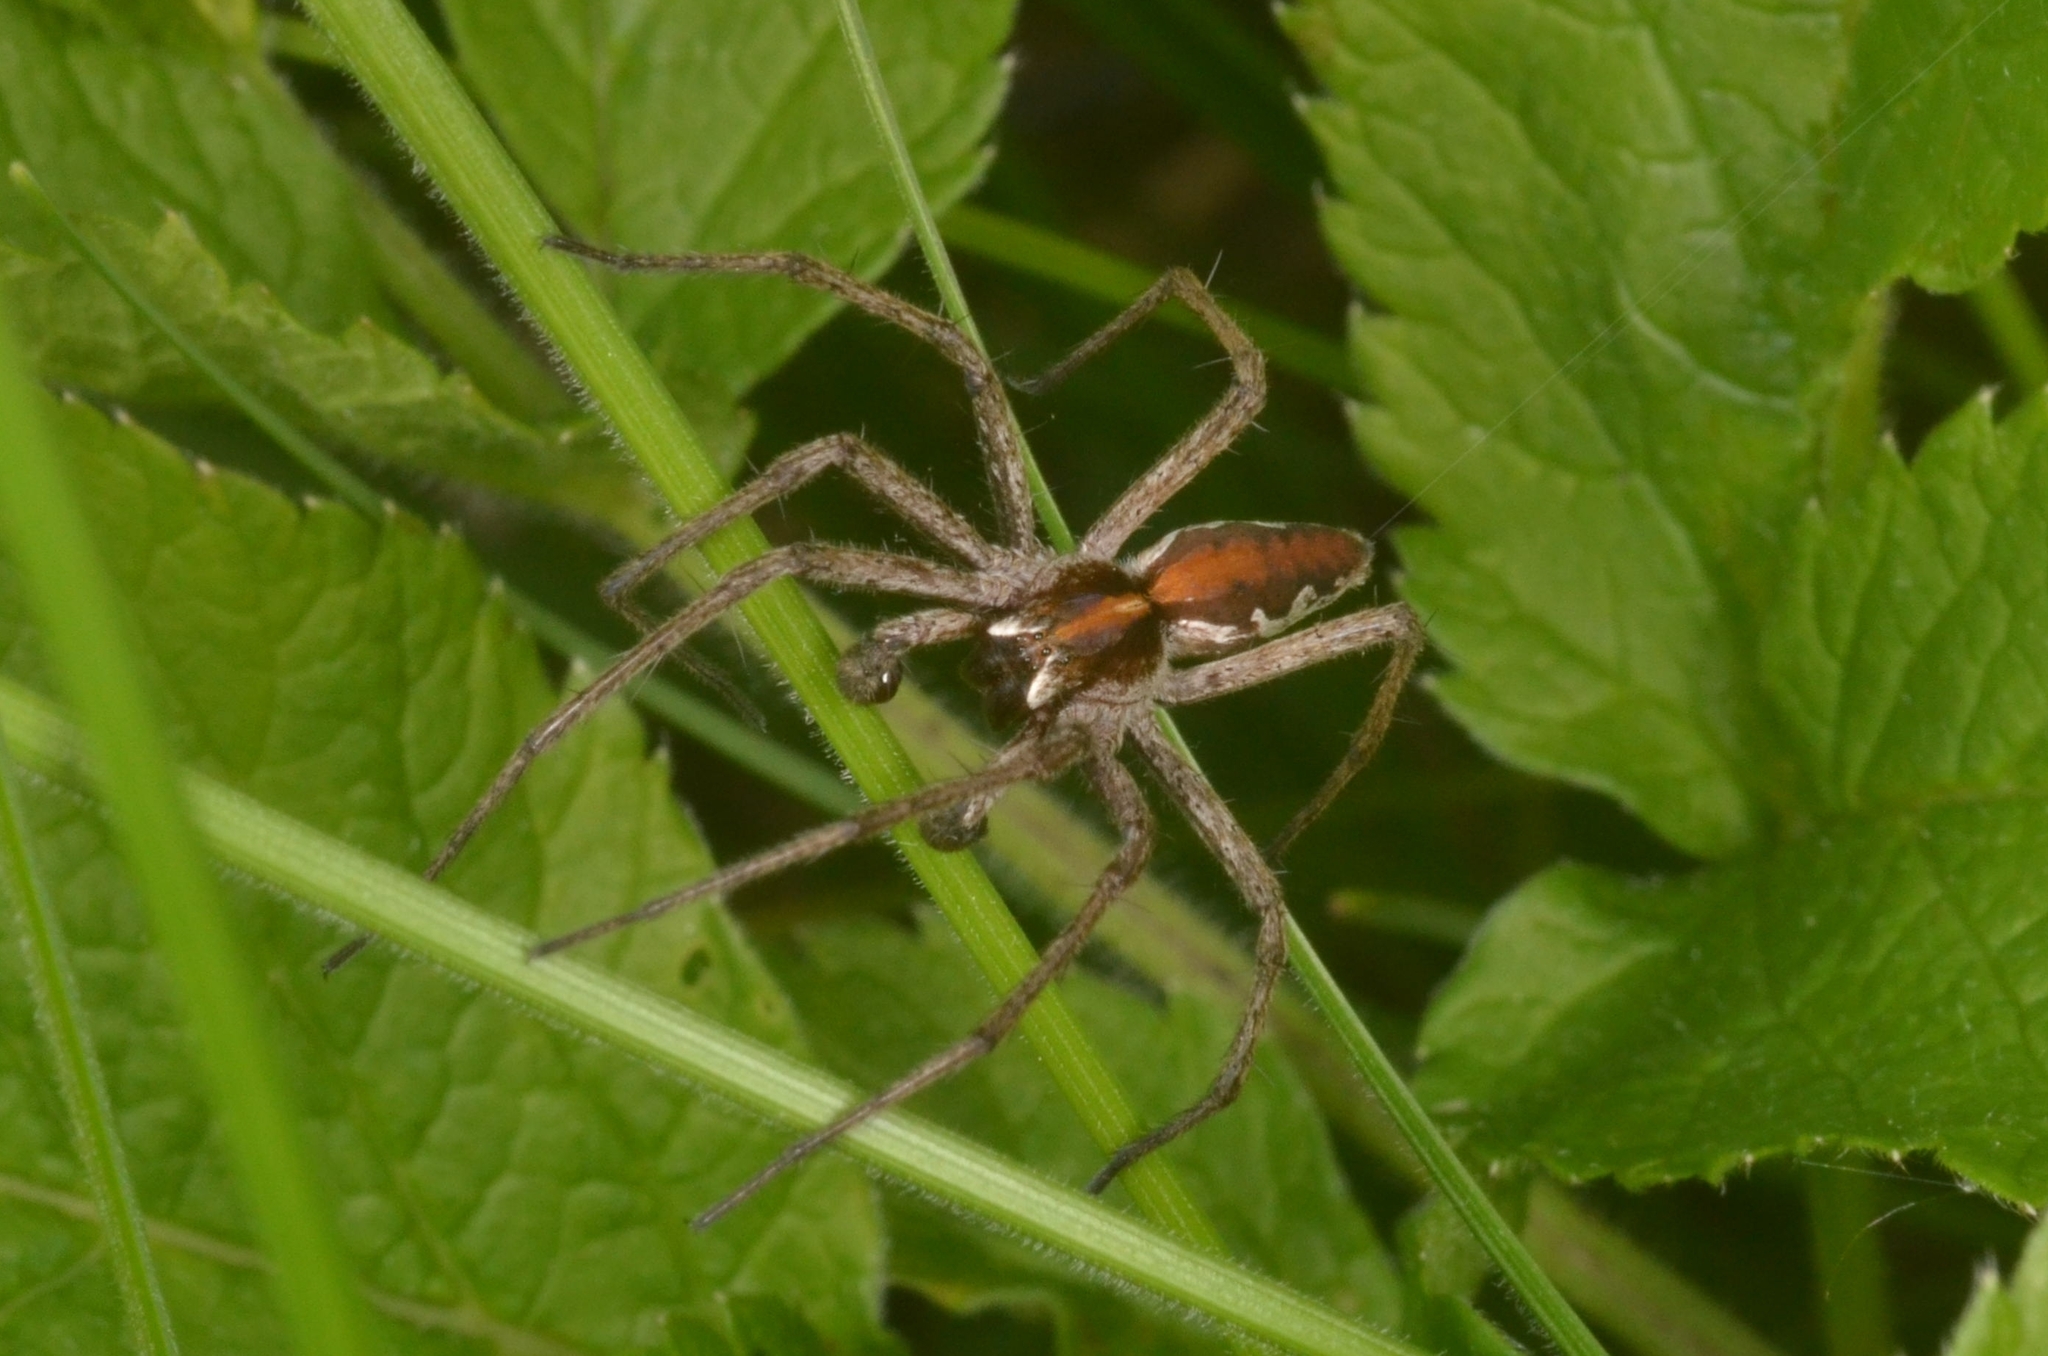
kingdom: Animalia
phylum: Arthropoda
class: Arachnida
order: Araneae
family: Pisauridae
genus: Pisaura
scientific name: Pisaura mirabilis
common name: Tent spider
